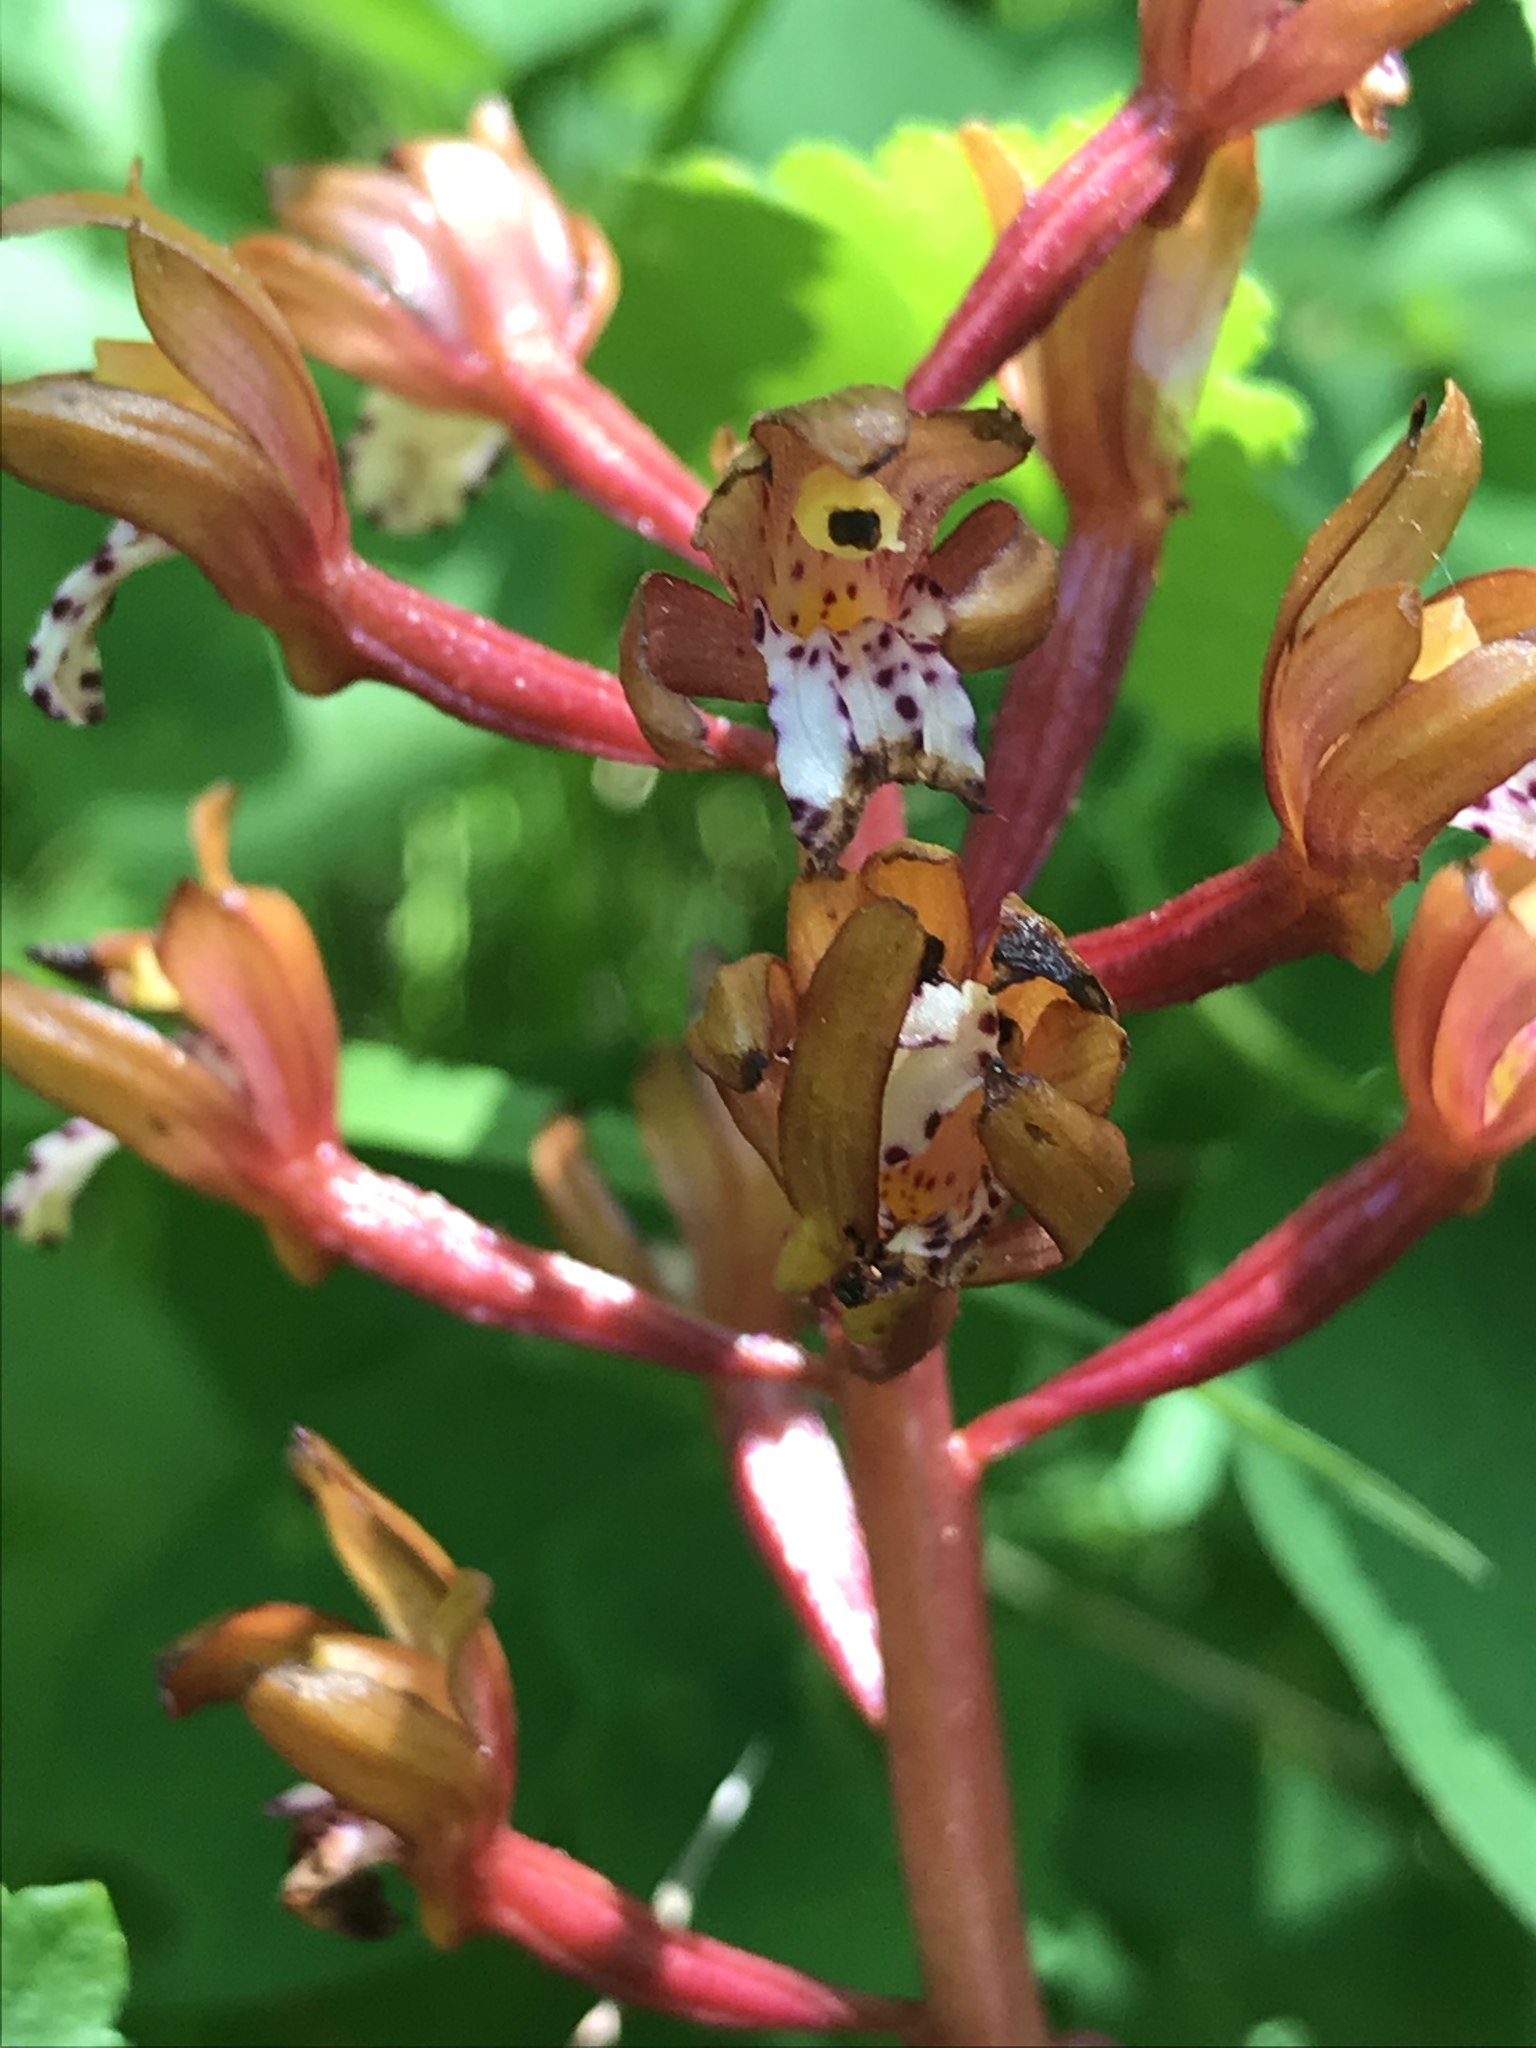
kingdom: Plantae
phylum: Tracheophyta
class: Liliopsida
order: Asparagales
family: Orchidaceae
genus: Corallorhiza
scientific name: Corallorhiza maculata
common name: Spotted coralroot
